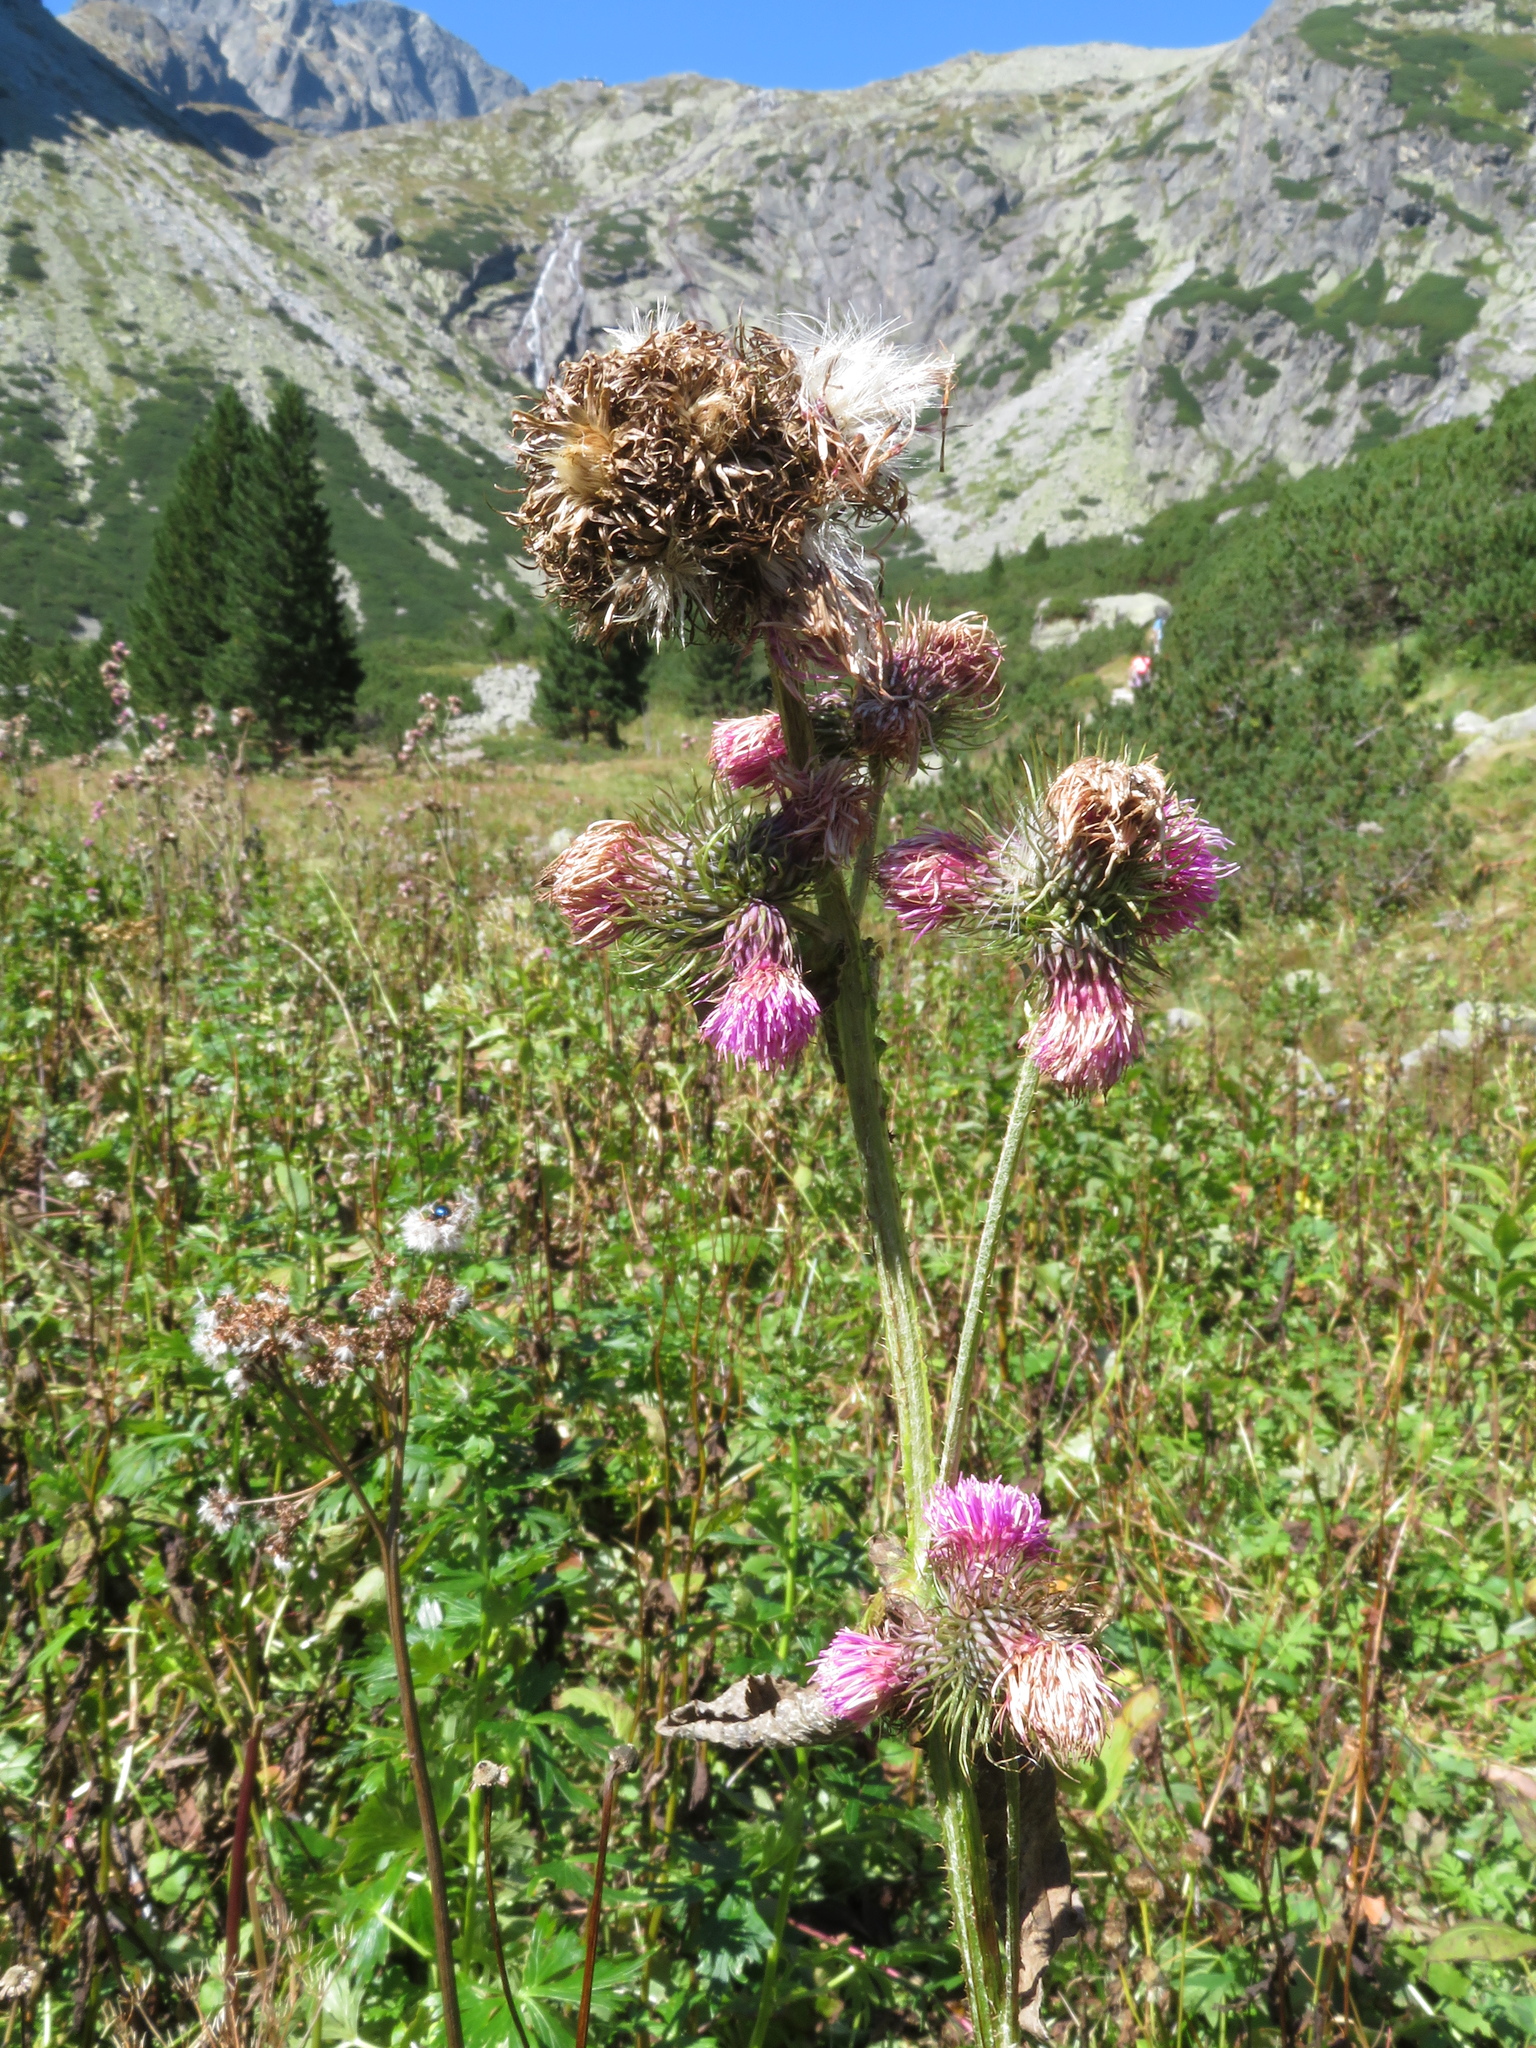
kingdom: Plantae
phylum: Tracheophyta
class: Magnoliopsida
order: Asterales
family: Asteraceae
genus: Carduus
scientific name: Carduus personata
